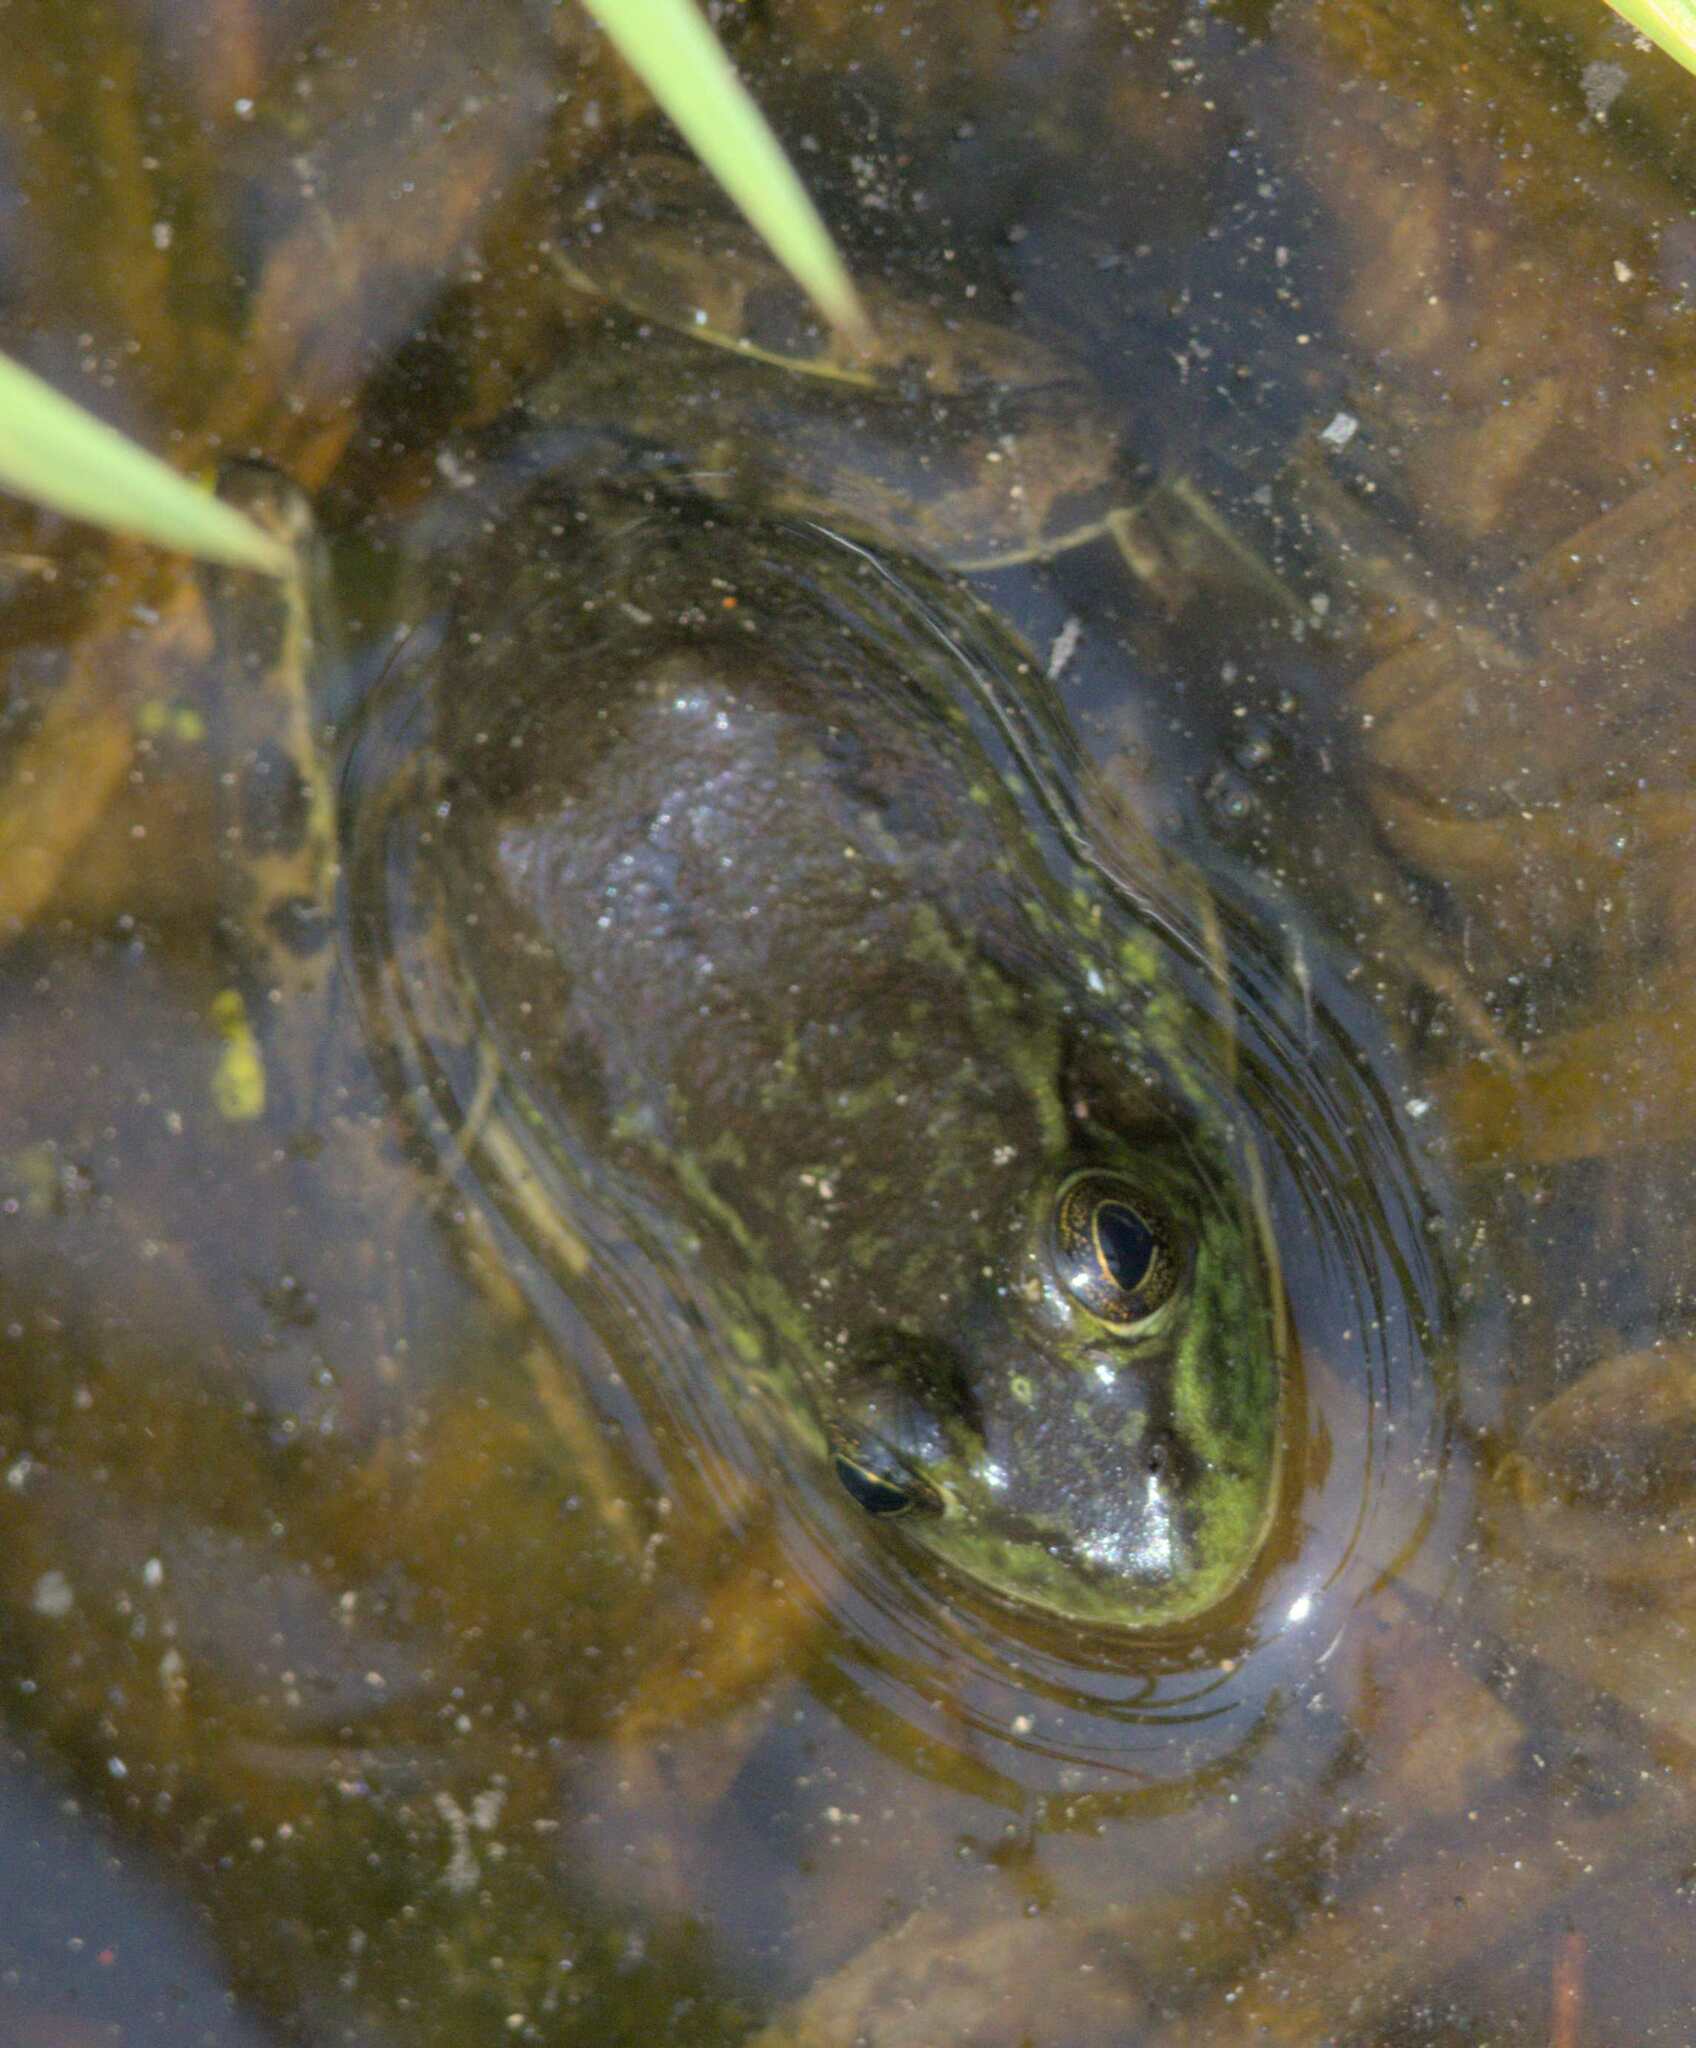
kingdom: Animalia
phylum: Chordata
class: Amphibia
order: Anura
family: Ranidae
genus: Lithobates
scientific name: Lithobates septentrionalis
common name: Mink frog
